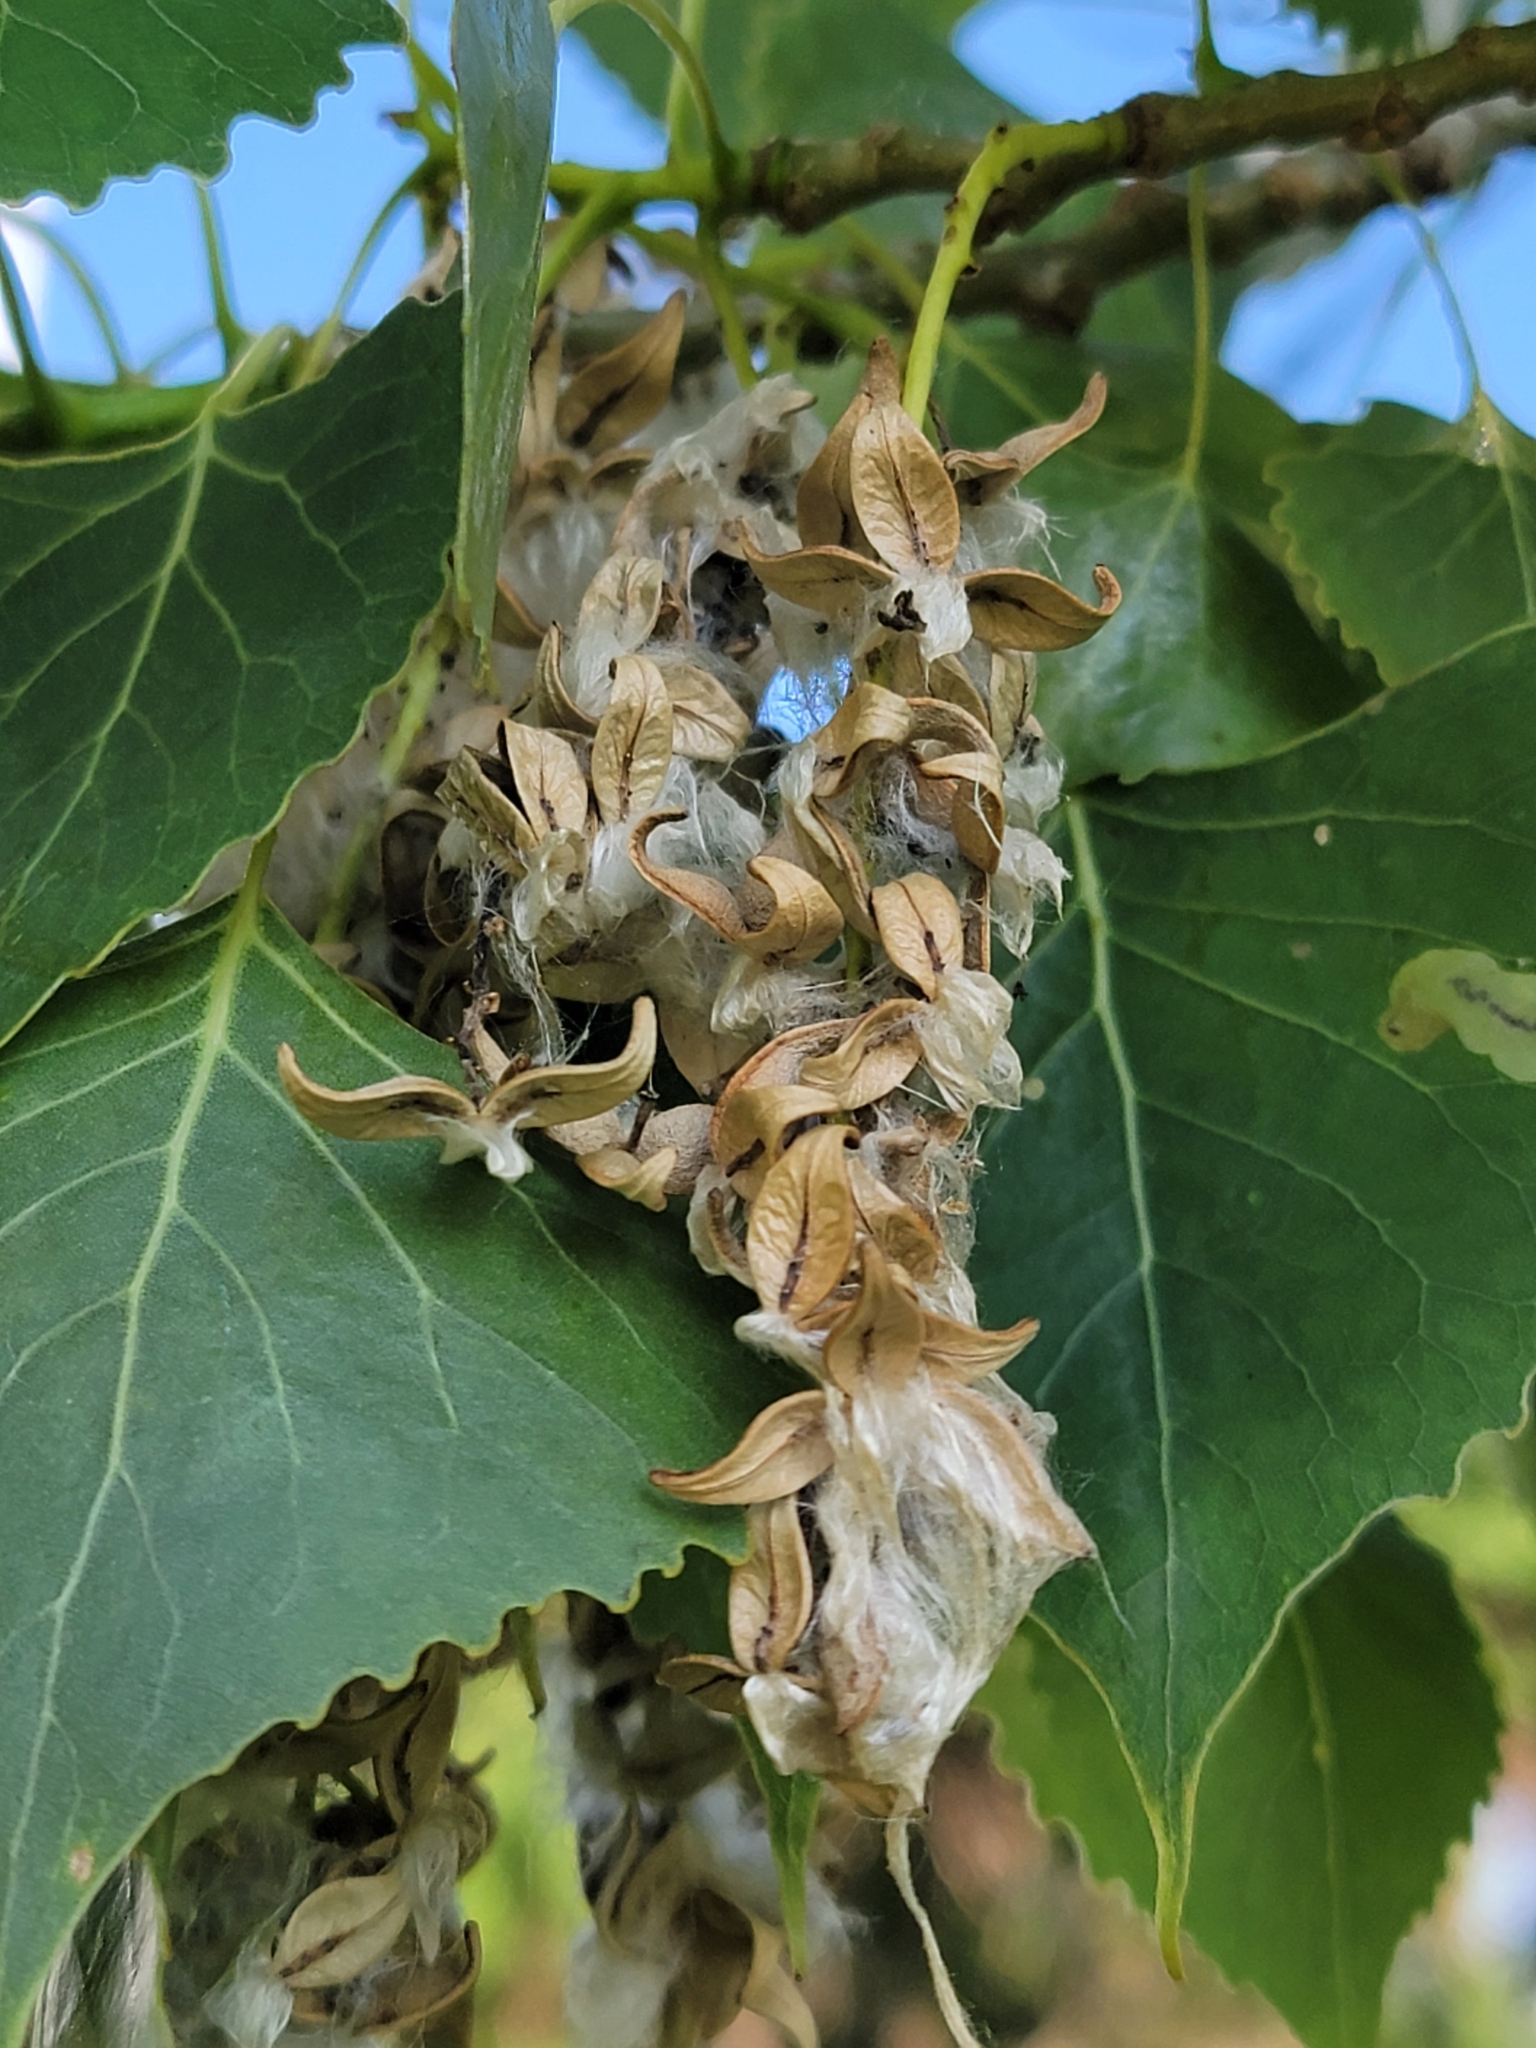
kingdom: Plantae
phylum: Tracheophyta
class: Magnoliopsida
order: Malpighiales
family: Salicaceae
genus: Populus
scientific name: Populus deltoides
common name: Eastern cottonwood
